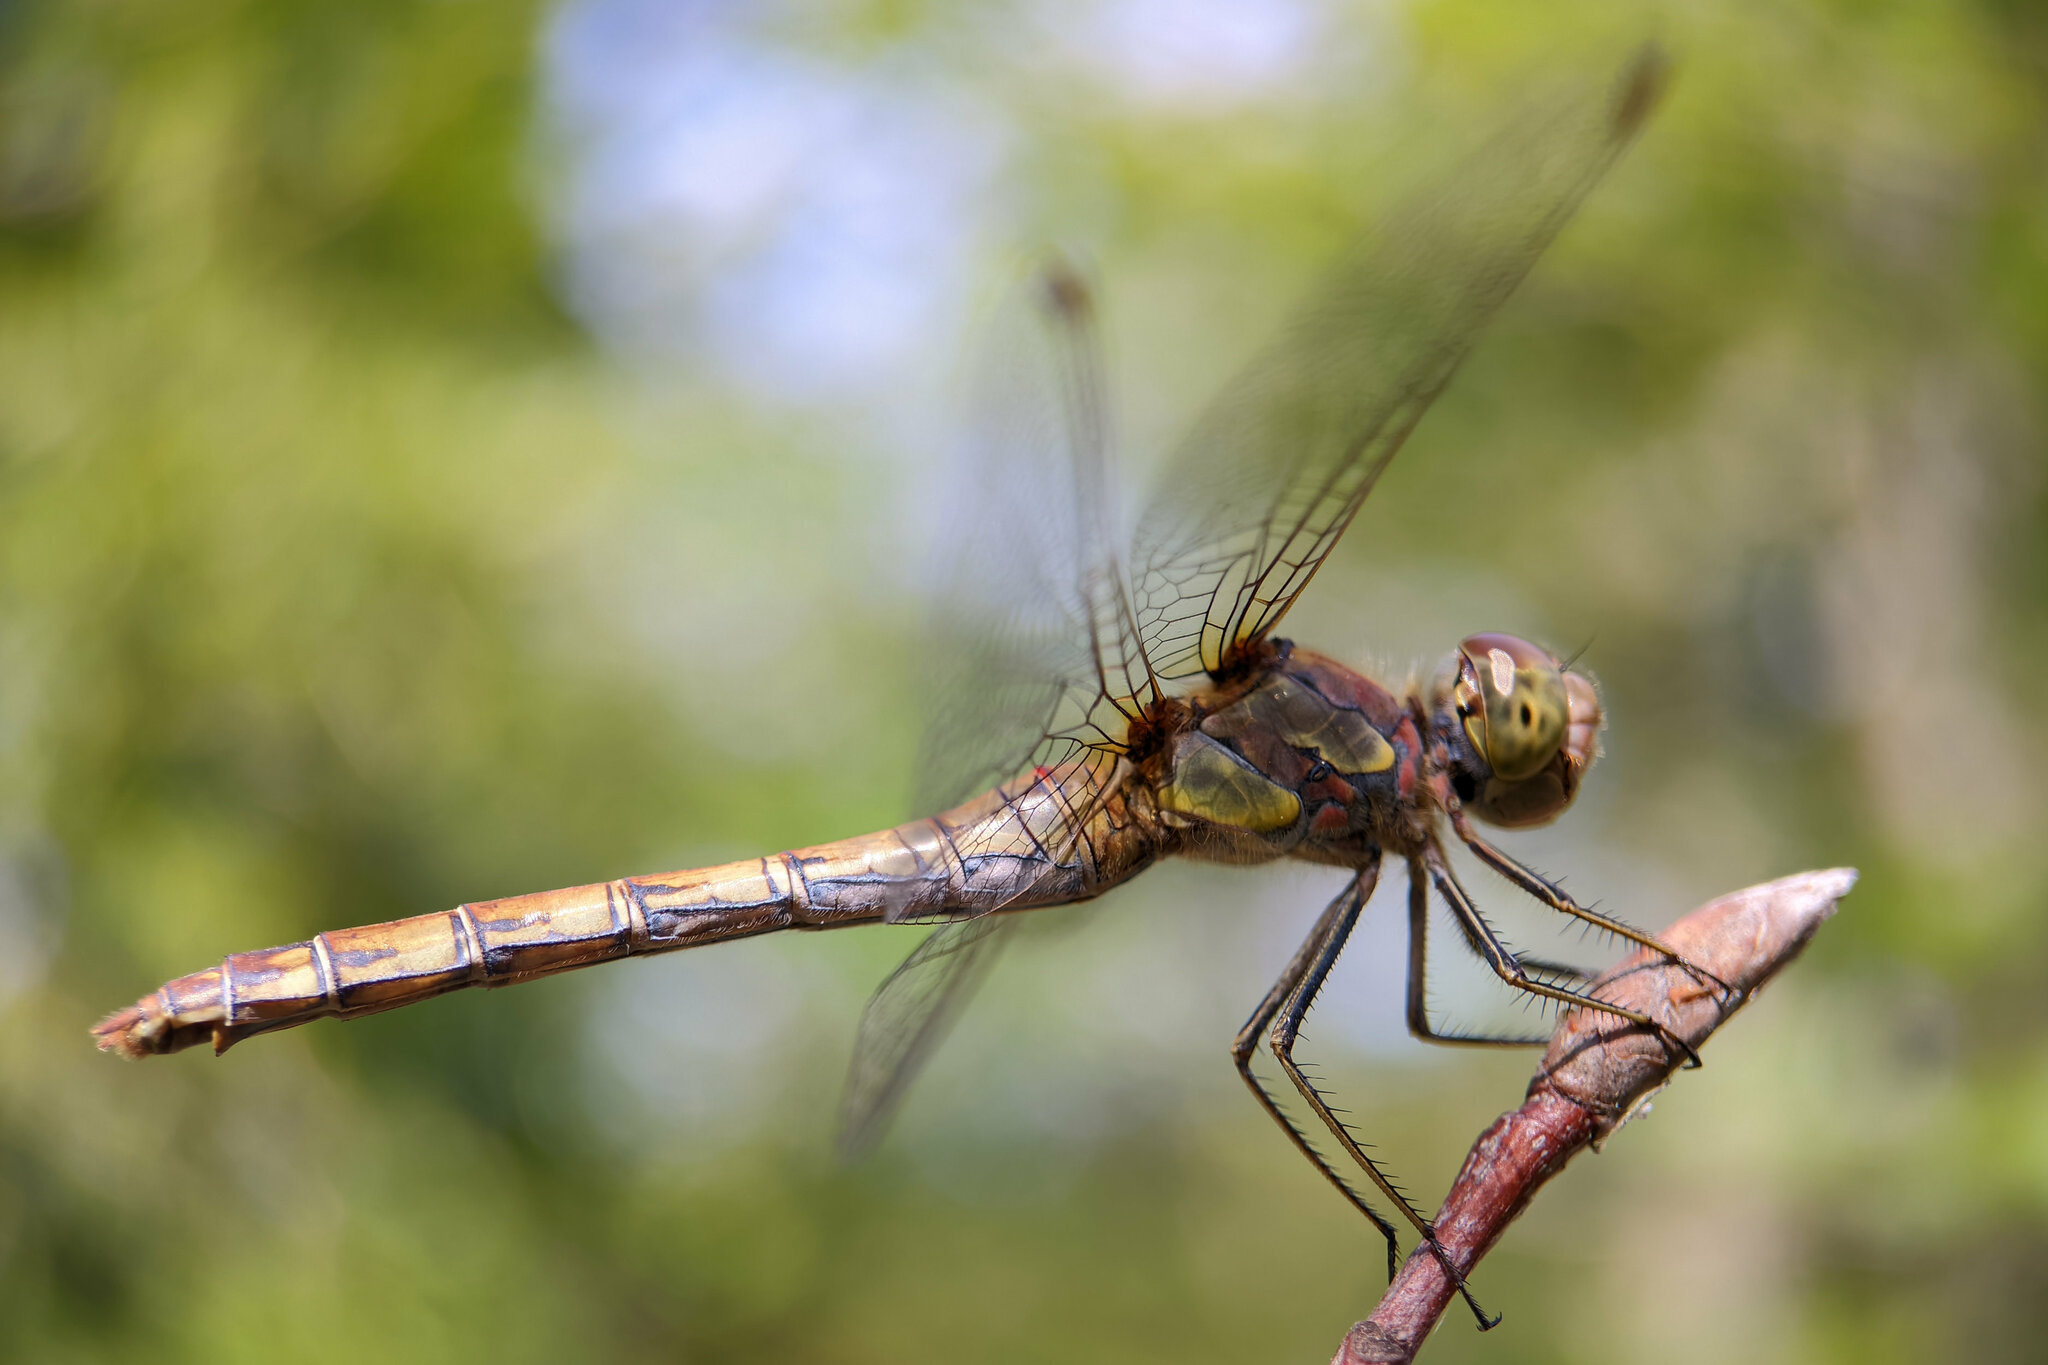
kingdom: Animalia
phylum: Arthropoda
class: Insecta
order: Odonata
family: Libellulidae
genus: Sympetrum
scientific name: Sympetrum striolatum
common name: Common darter
